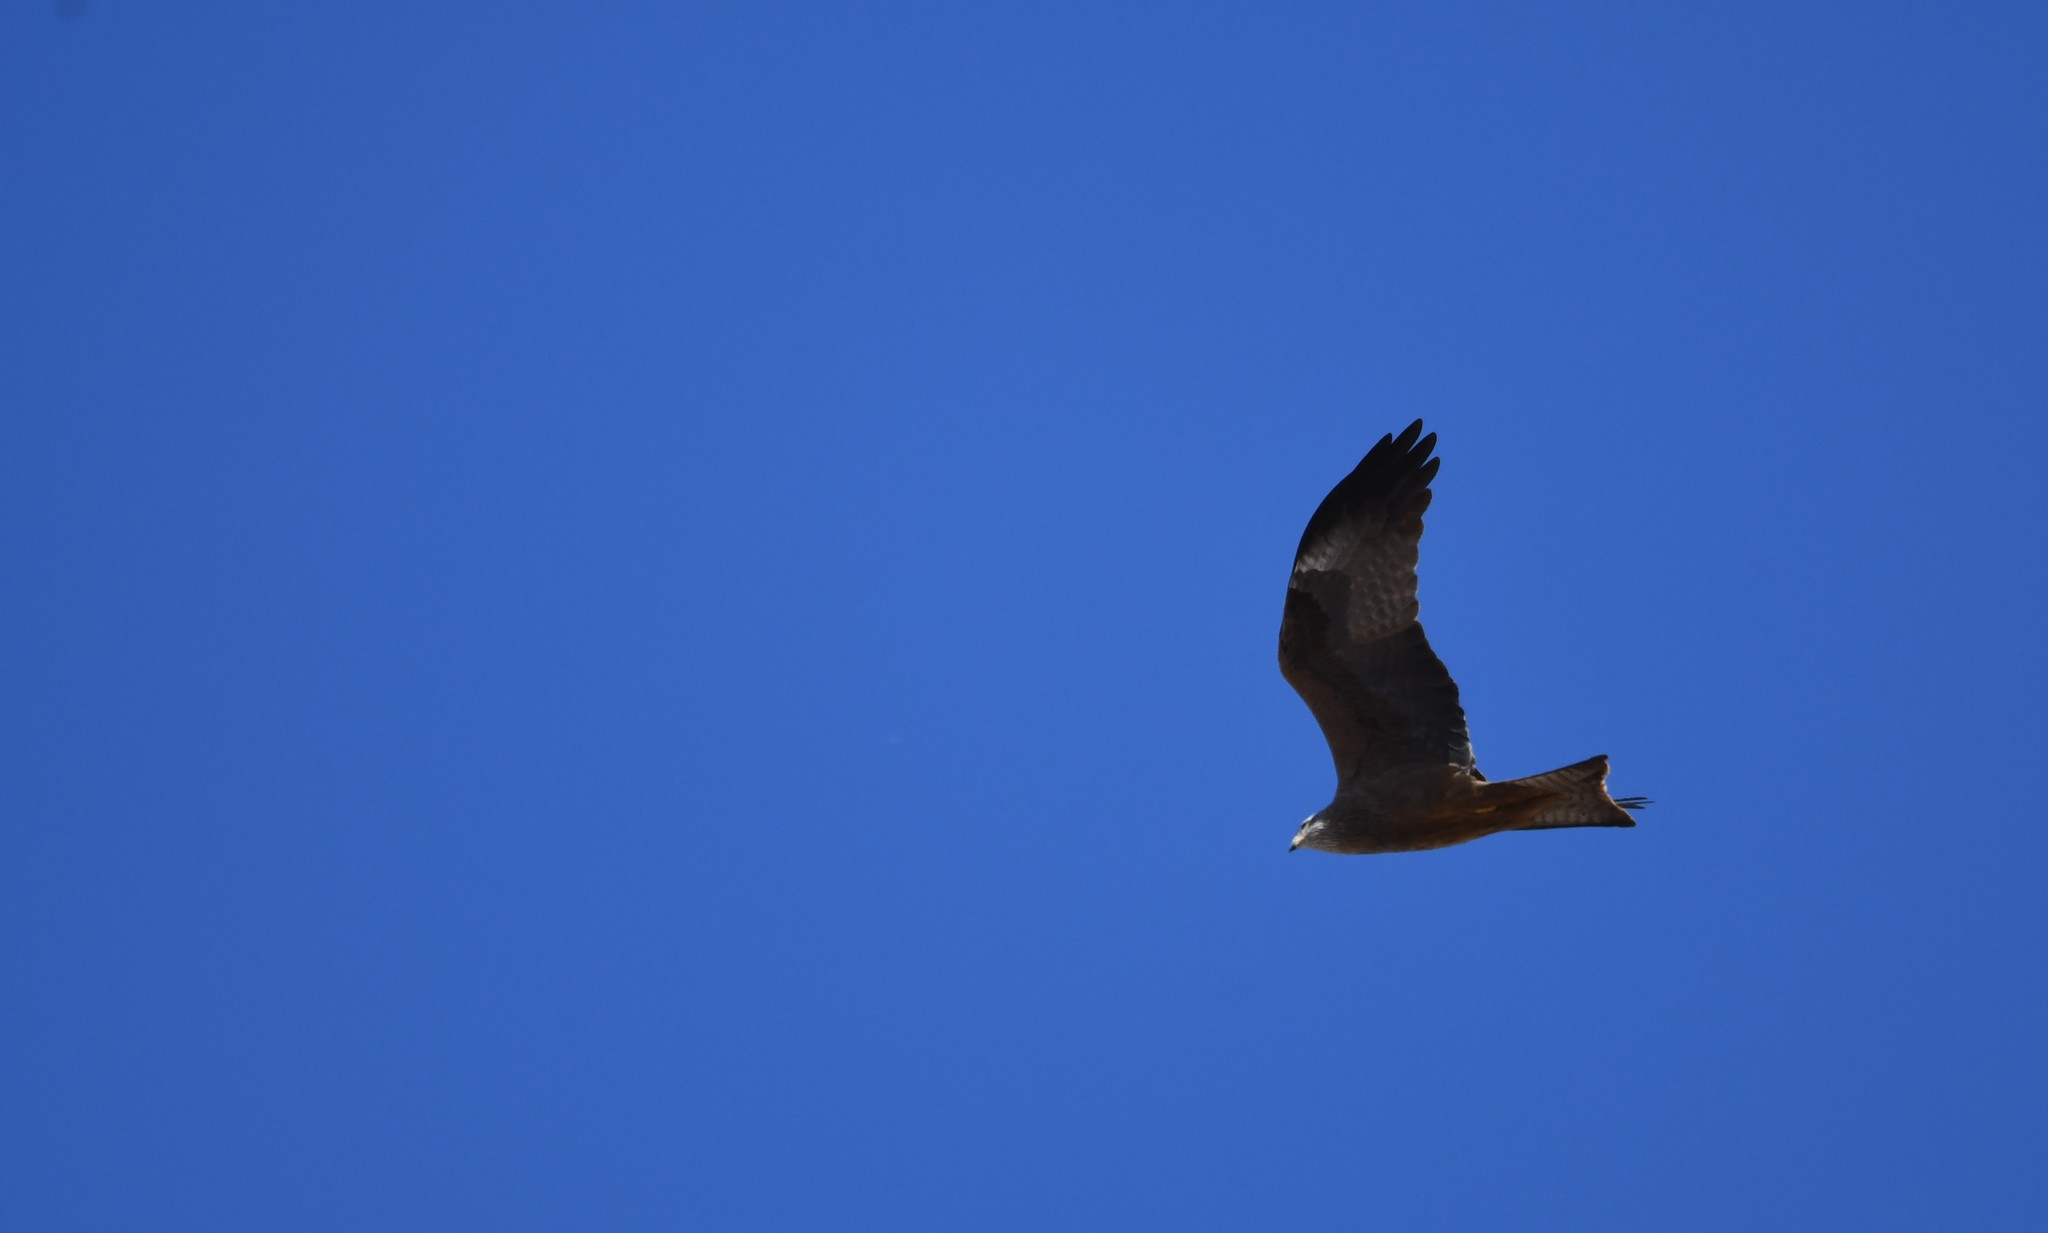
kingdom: Animalia
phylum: Chordata
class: Aves
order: Accipitriformes
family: Accipitridae
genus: Milvus
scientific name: Milvus migrans
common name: Black kite
